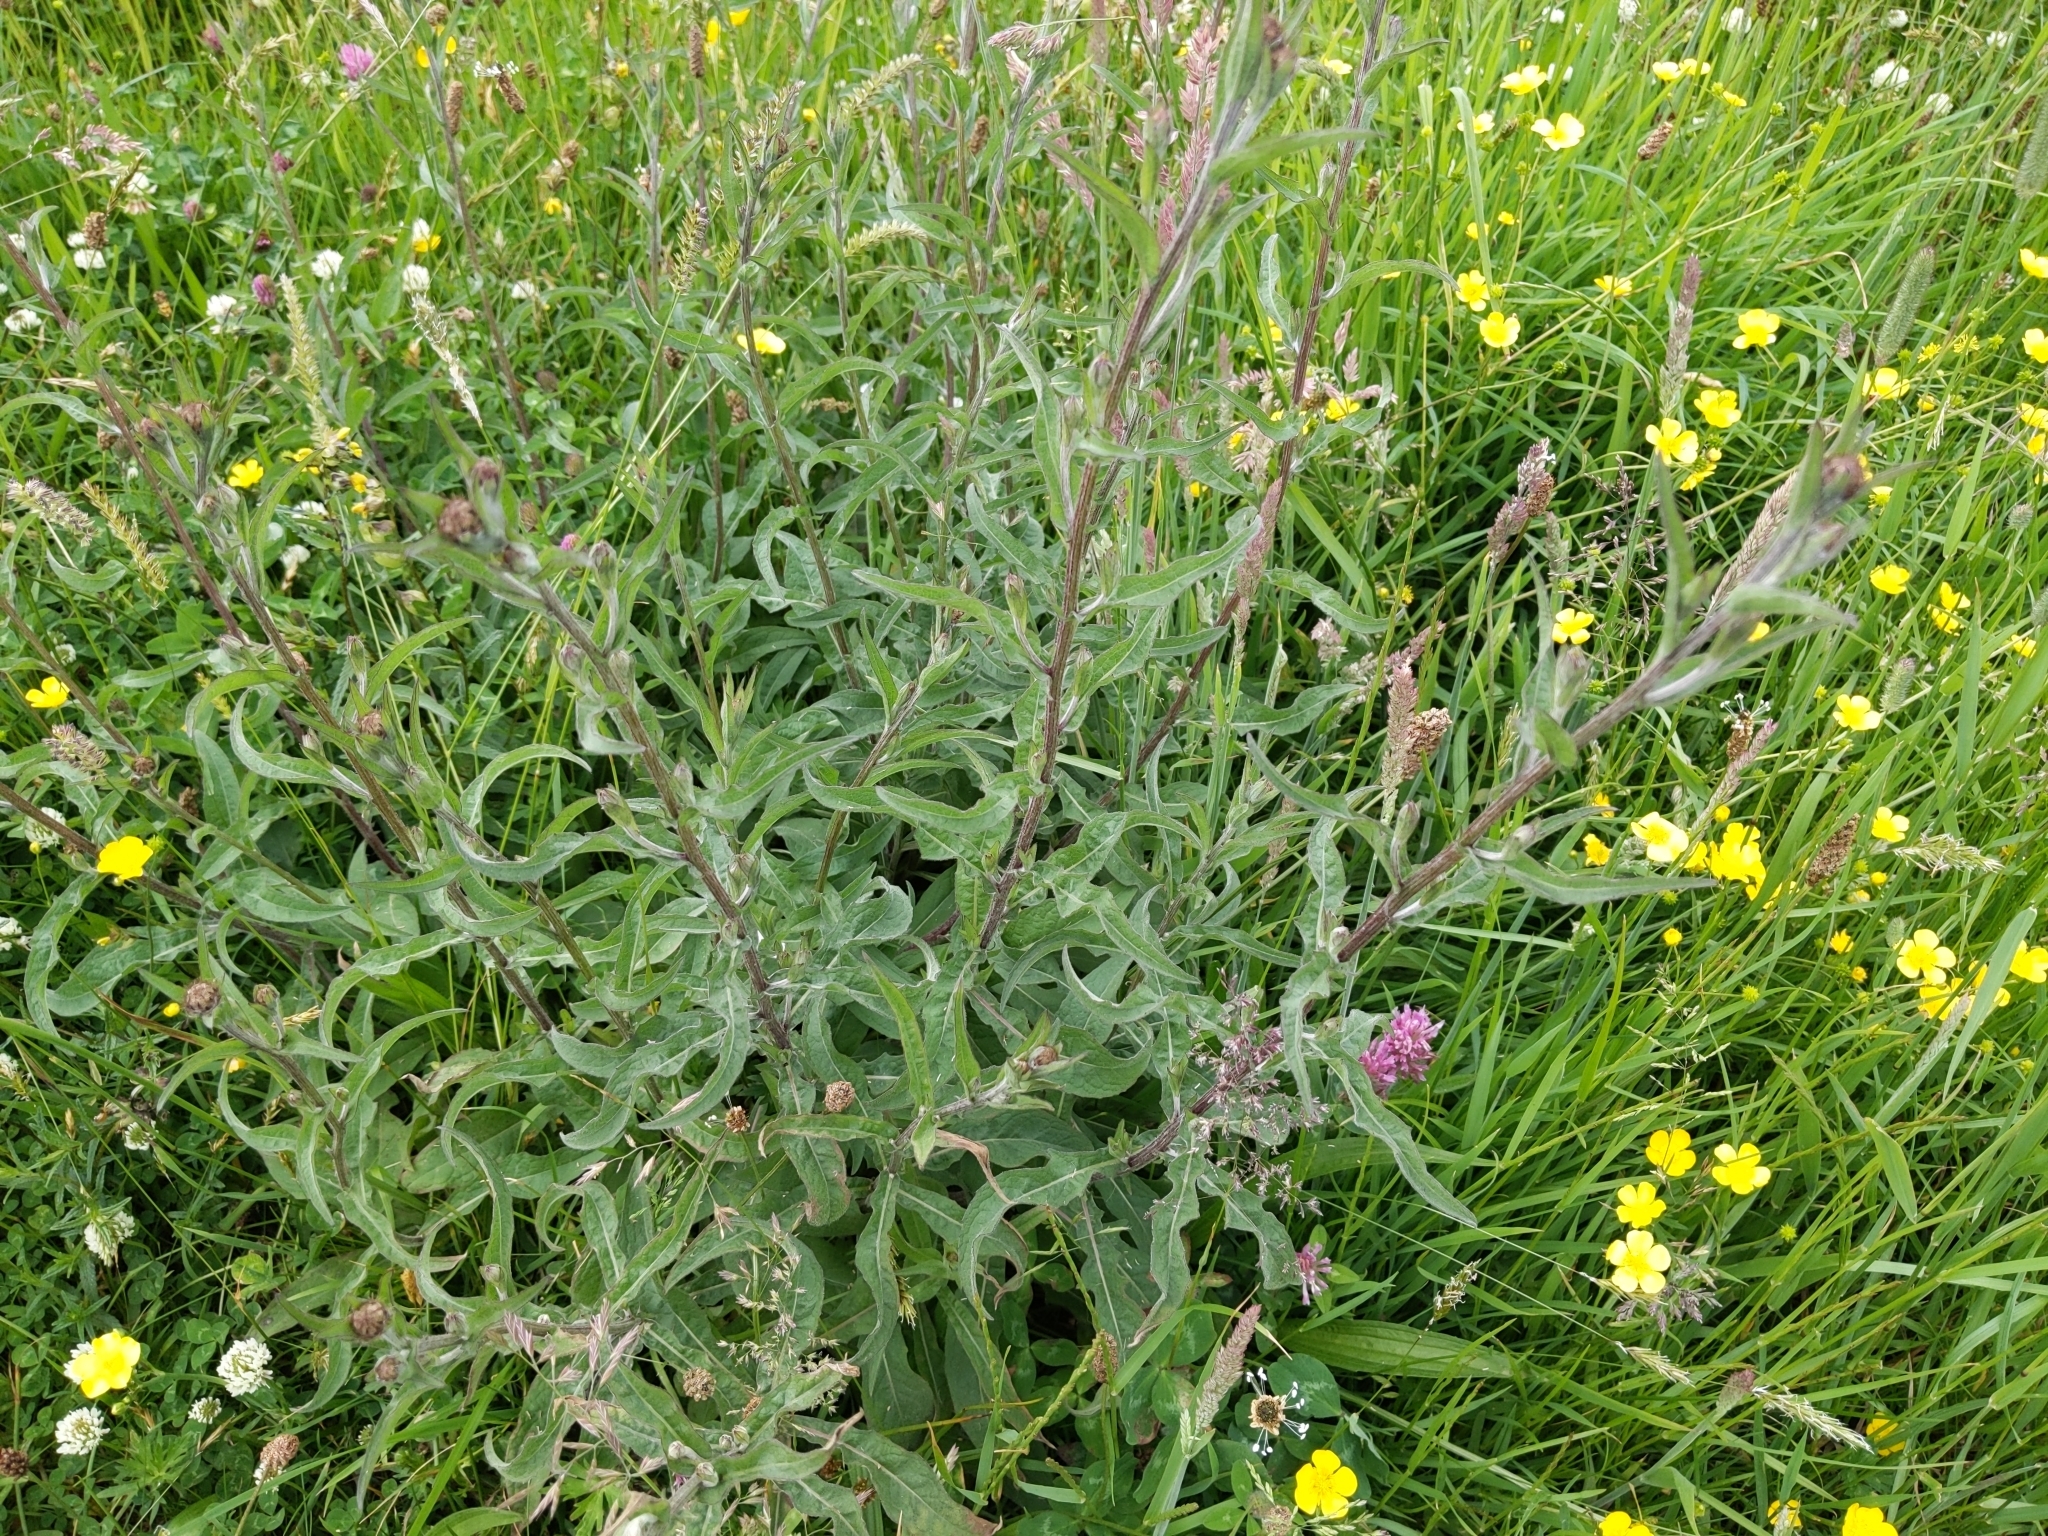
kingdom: Plantae
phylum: Tracheophyta
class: Magnoliopsida
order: Asterales
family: Asteraceae
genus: Centaurea
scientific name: Centaurea nigra
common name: Lesser knapweed
